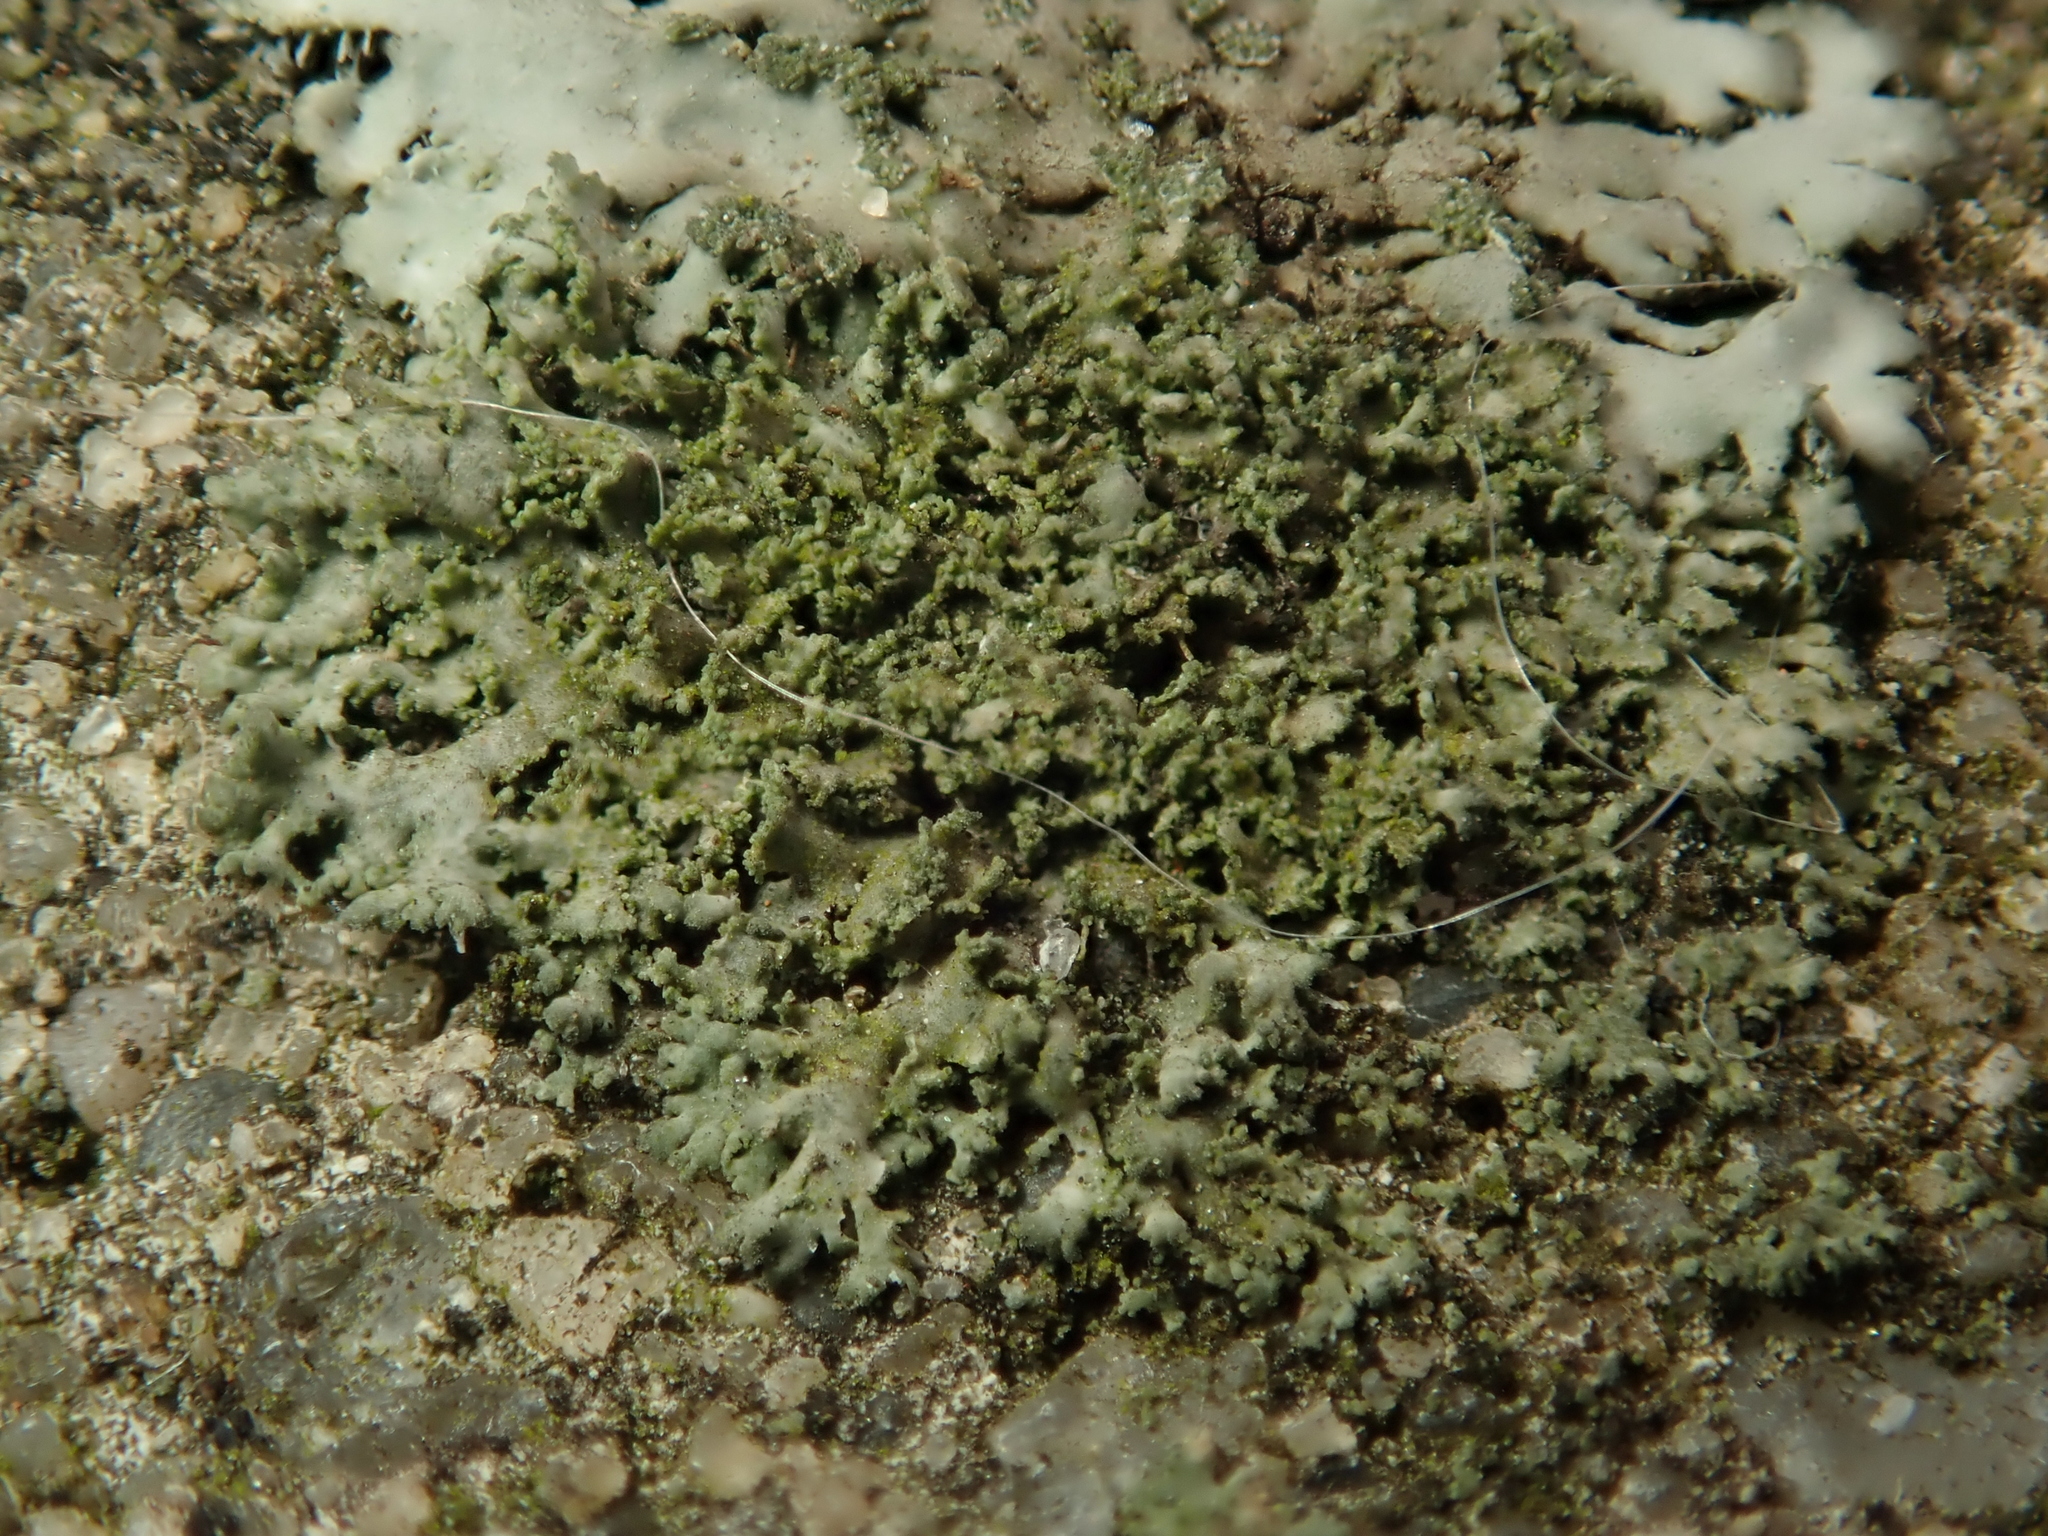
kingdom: Fungi
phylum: Ascomycota
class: Lecanoromycetes
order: Caliciales
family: Physciaceae
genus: Physciella
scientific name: Physciella nigricans
